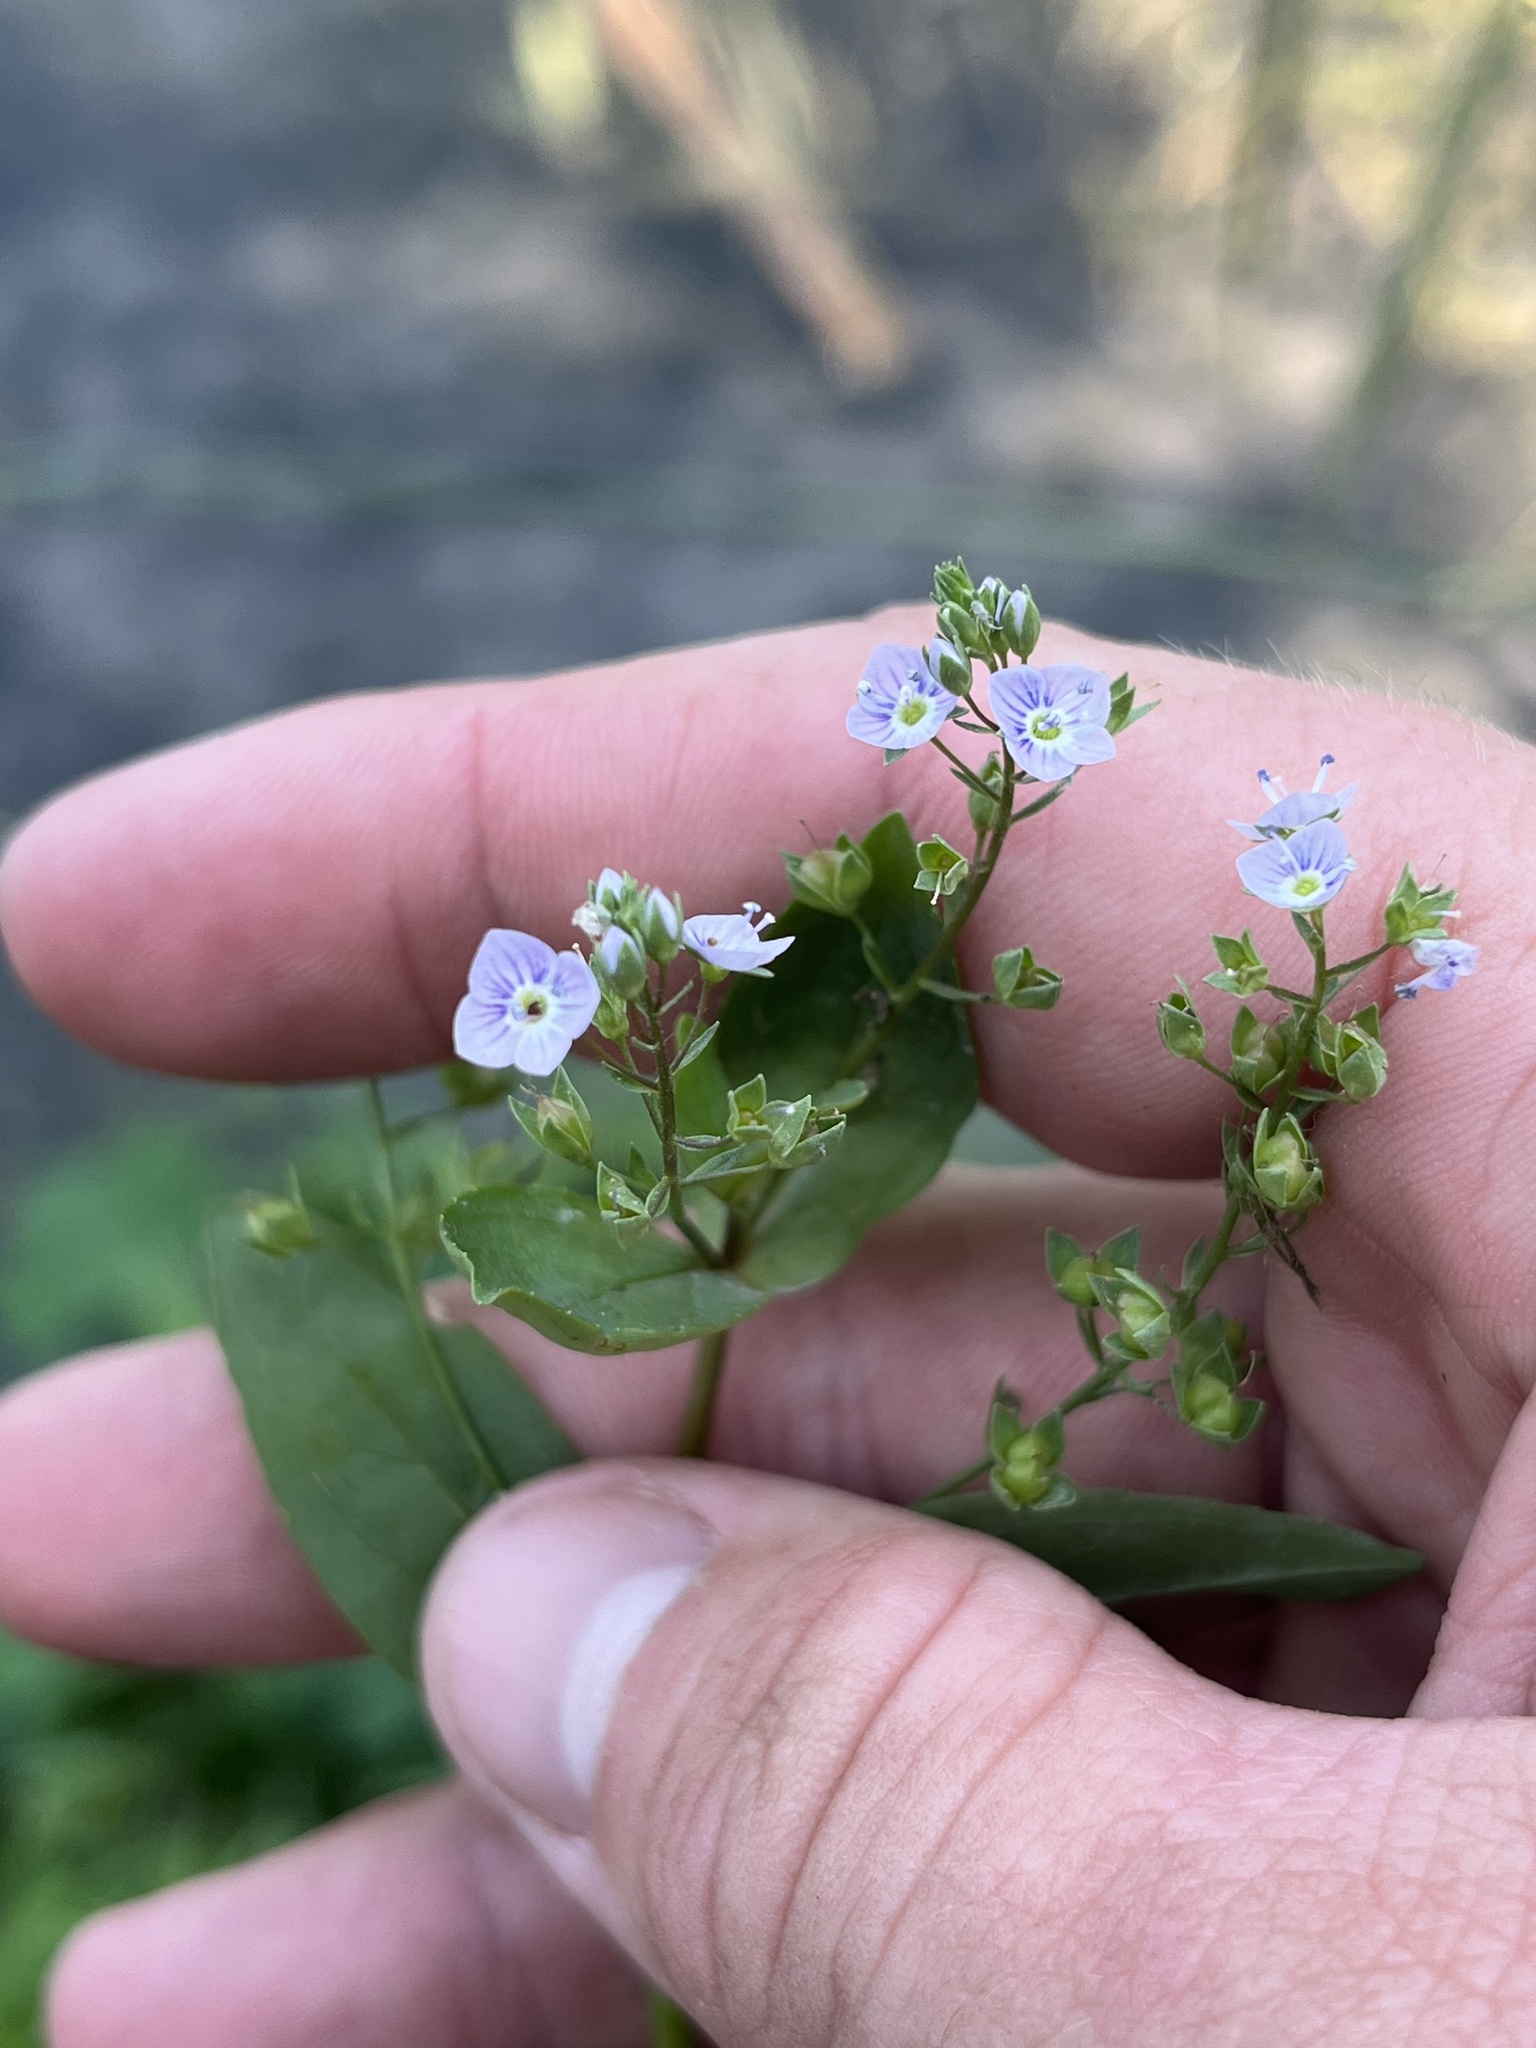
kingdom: Plantae
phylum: Tracheophyta
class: Magnoliopsida
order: Lamiales
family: Plantaginaceae
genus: Veronica
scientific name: Veronica anagallis-aquatica
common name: Water speedwell
